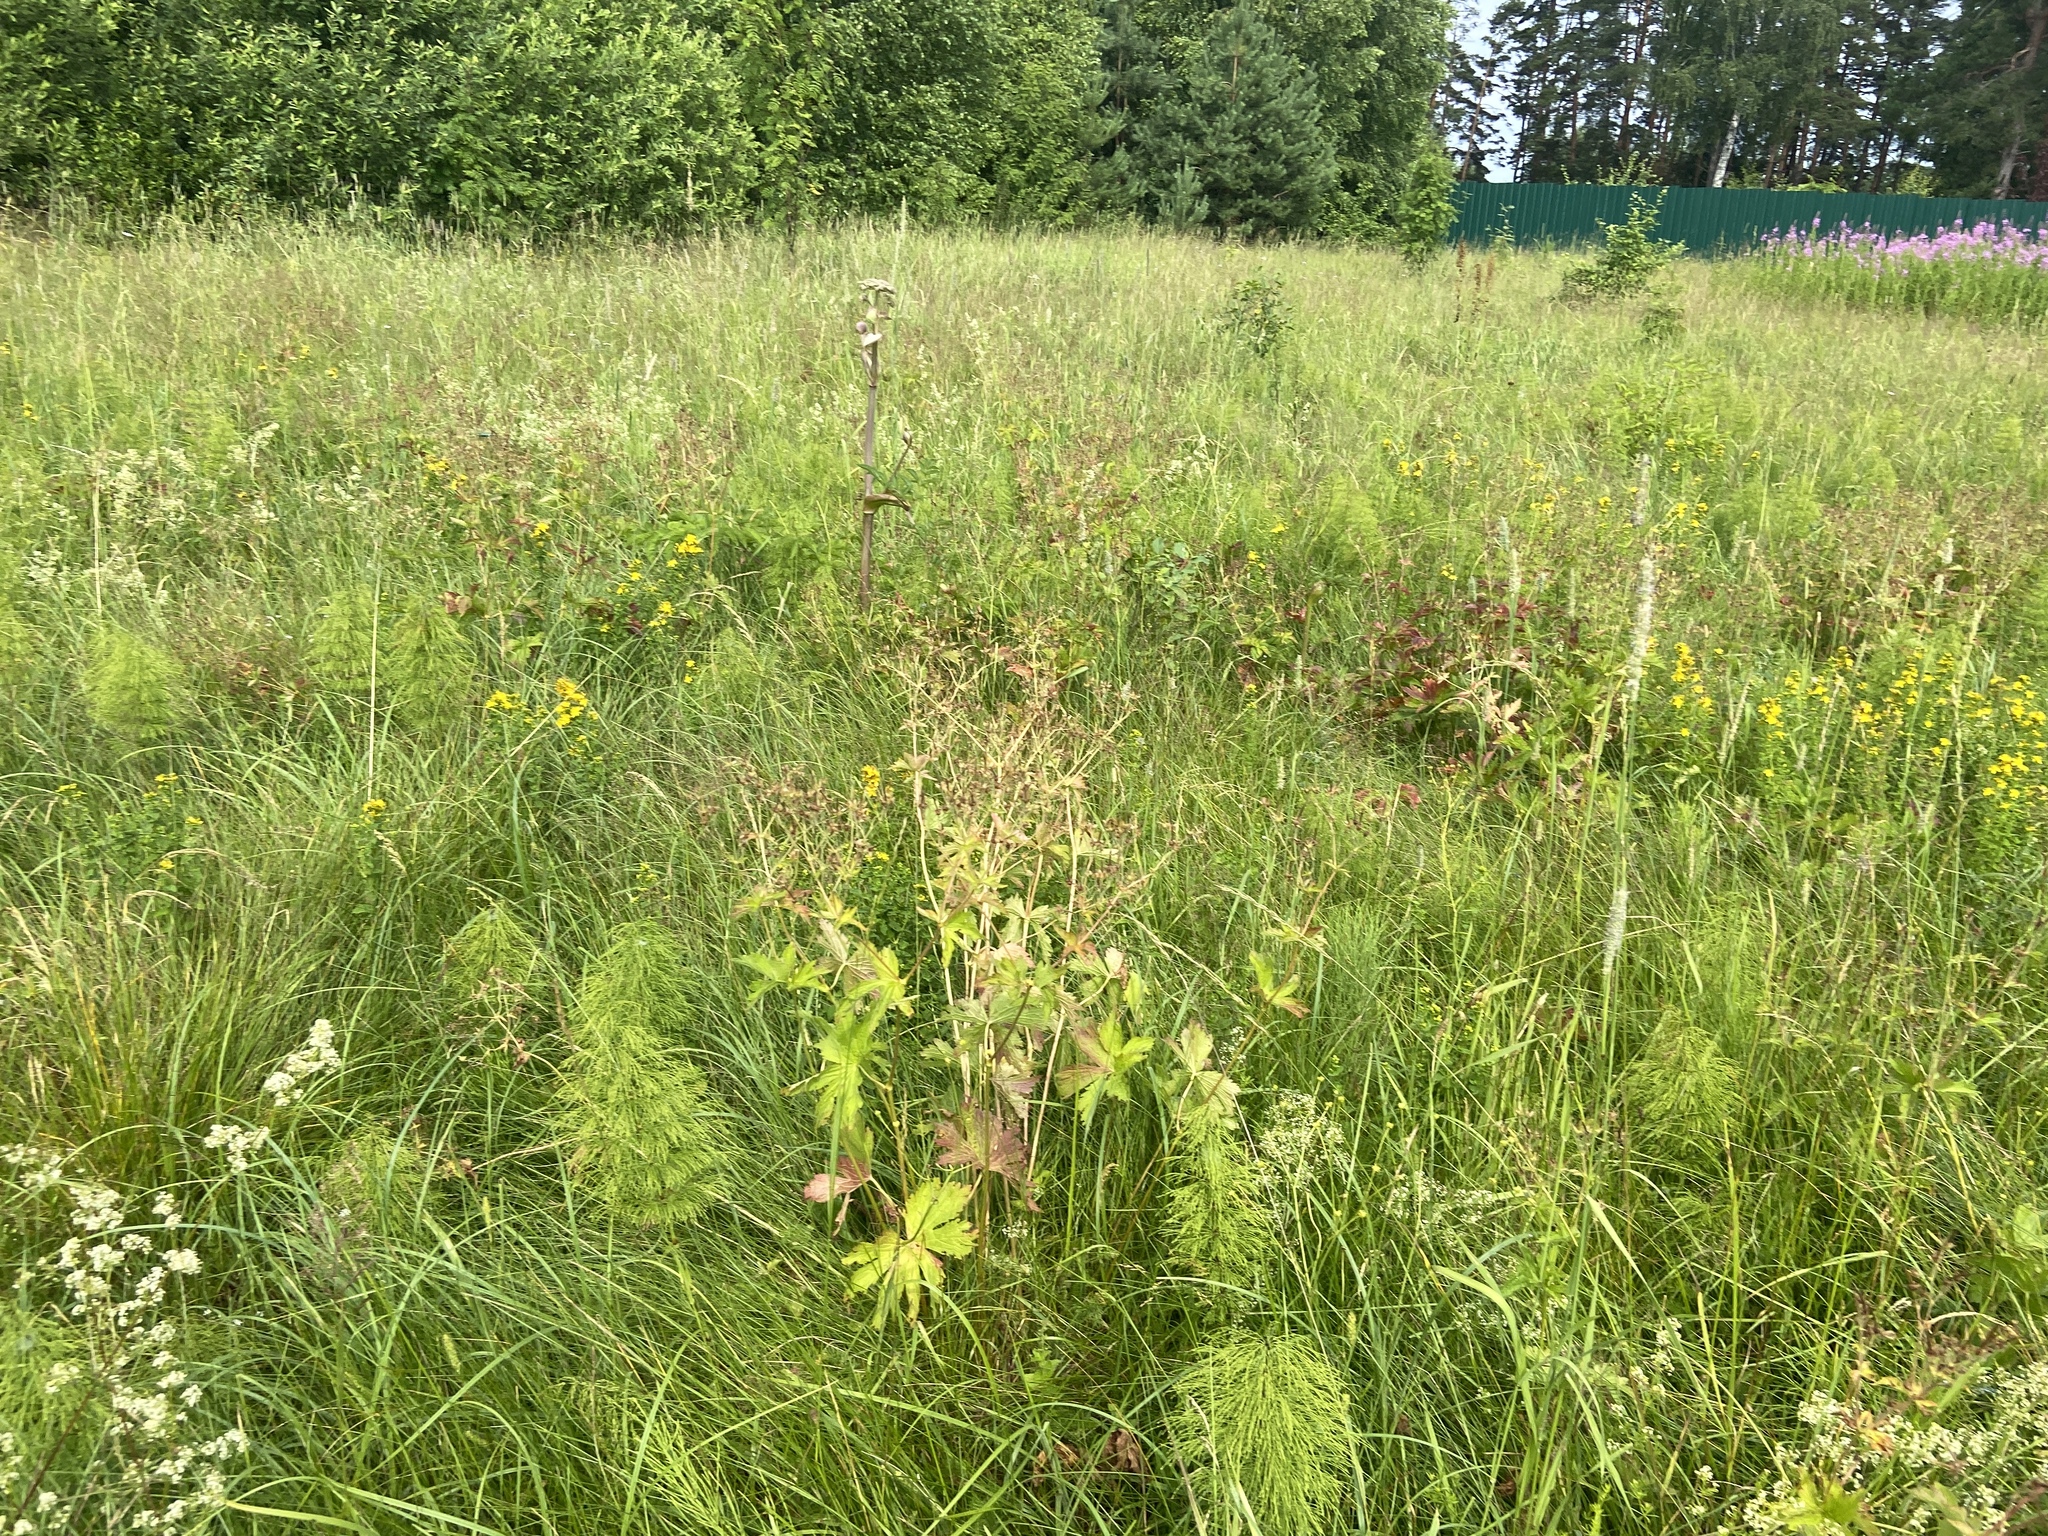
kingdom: Plantae
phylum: Tracheophyta
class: Magnoliopsida
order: Geraniales
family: Geraniaceae
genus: Geranium
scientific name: Geranium sylvaticum
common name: Wood crane's-bill
